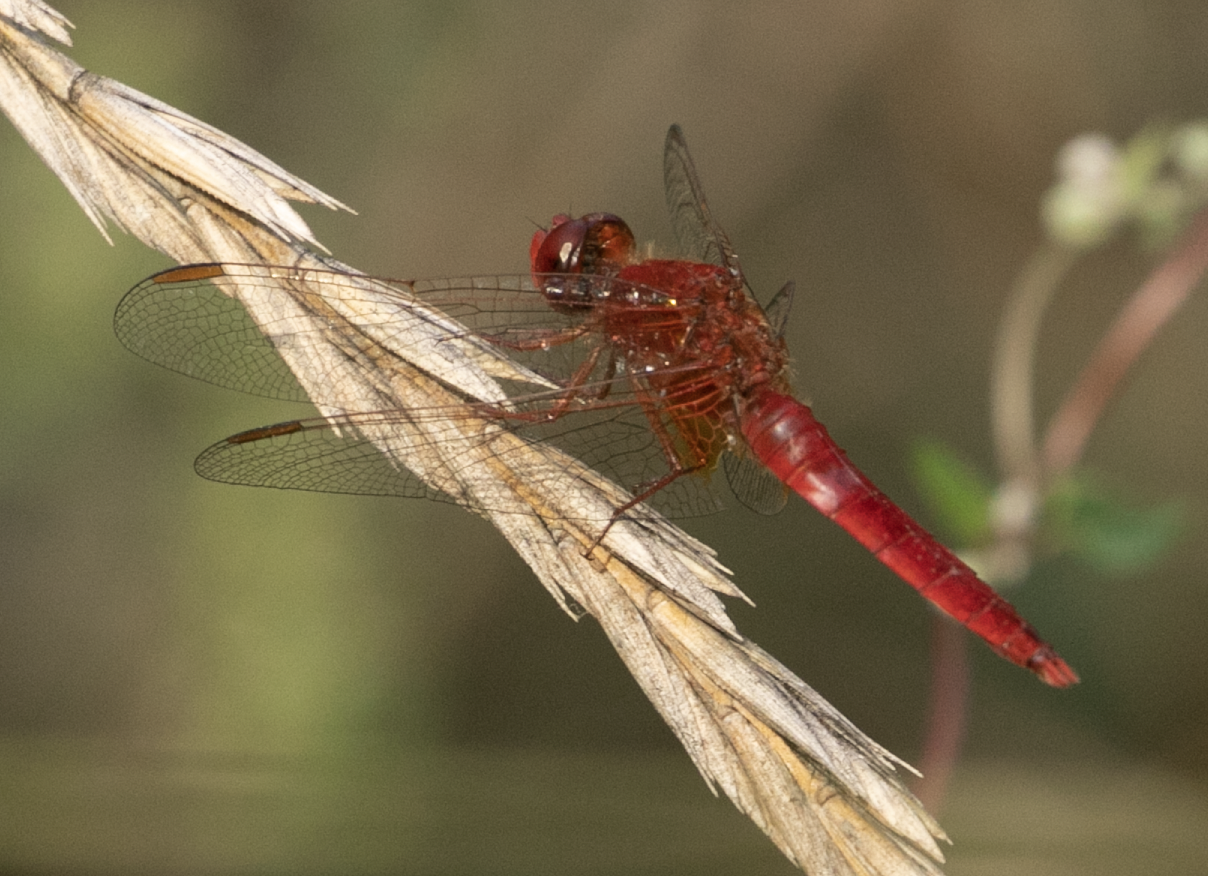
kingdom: Animalia
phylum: Arthropoda
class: Insecta
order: Odonata
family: Libellulidae
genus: Crocothemis
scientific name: Crocothemis erythraea
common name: Scarlet dragonfly
